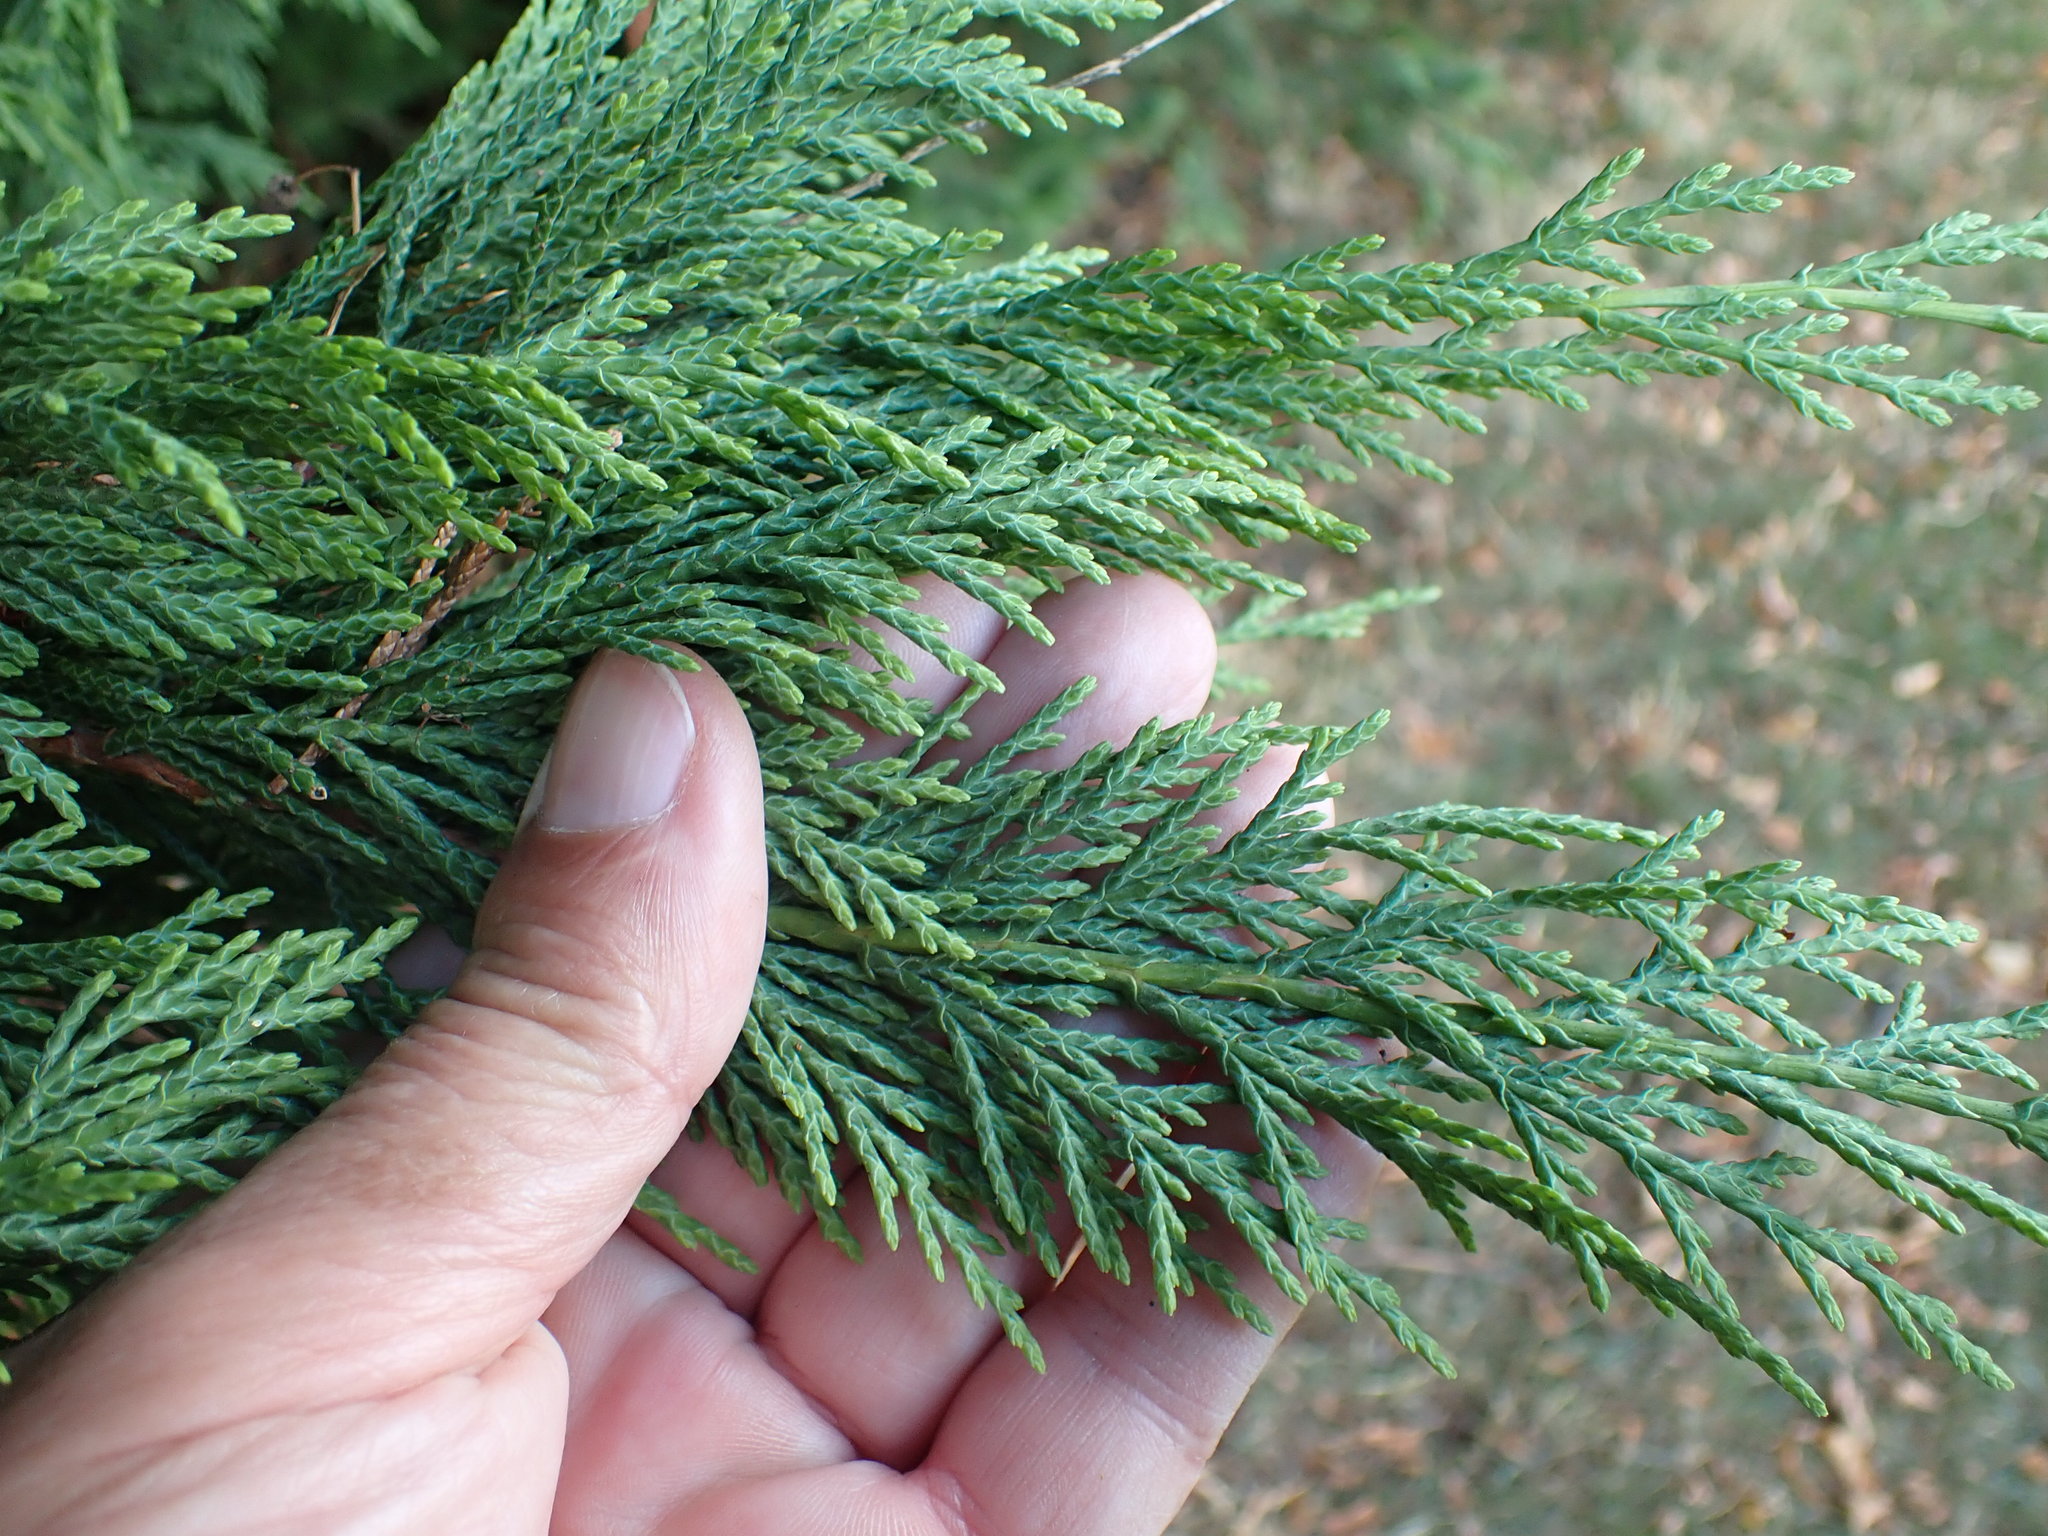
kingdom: Plantae
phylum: Tracheophyta
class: Pinopsida
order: Pinales
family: Cupressaceae
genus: Hesperotropsis
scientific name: Hesperotropsis leylandii
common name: Leyland cypress
